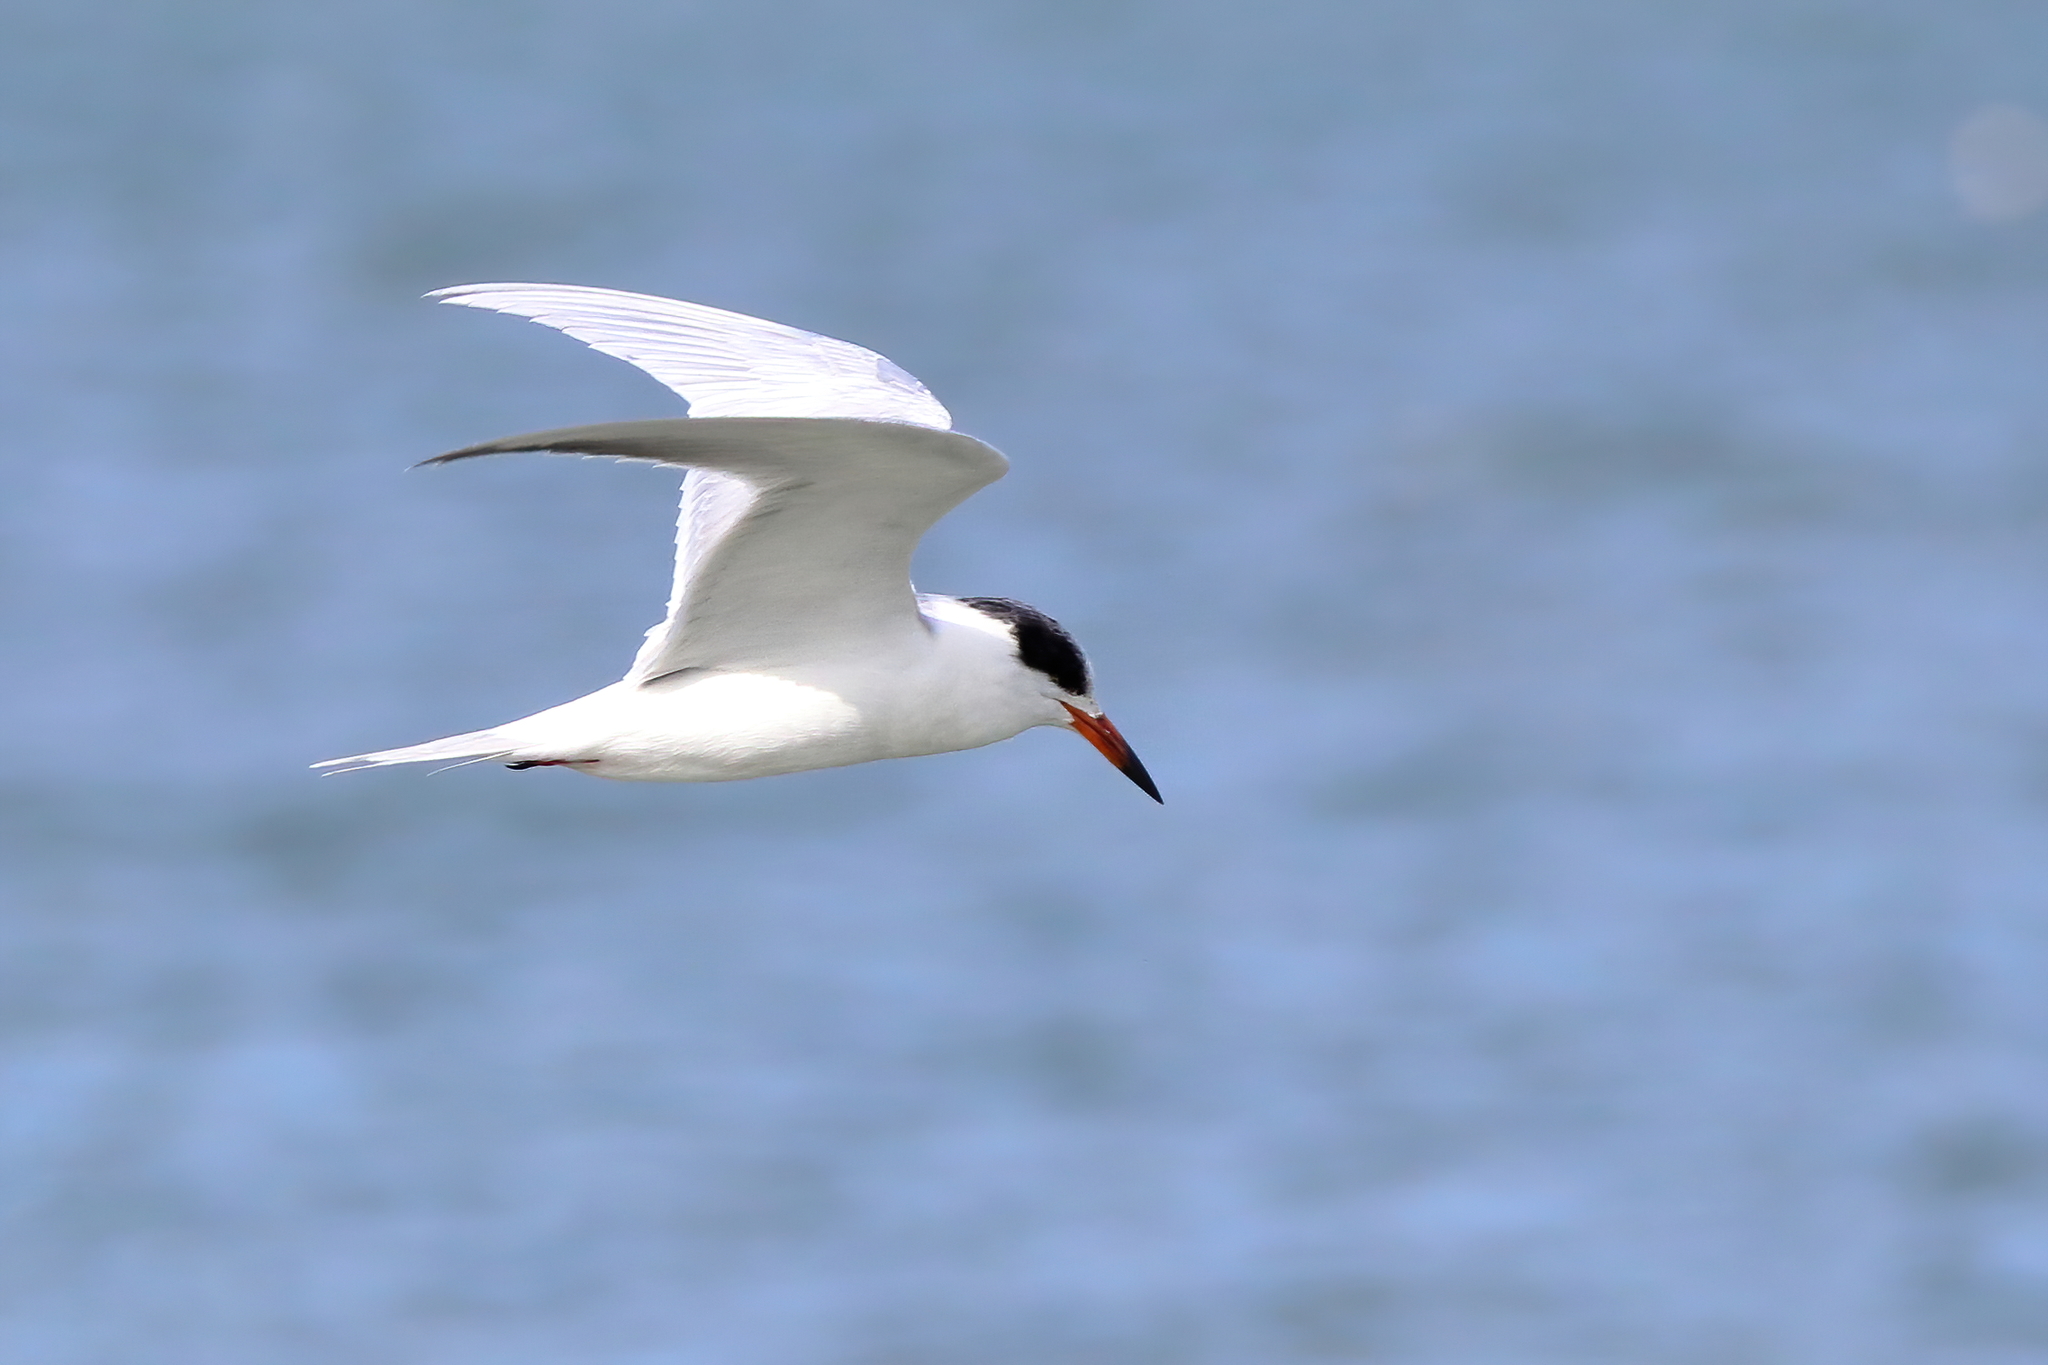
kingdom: Animalia
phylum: Chordata
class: Aves
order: Charadriiformes
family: Laridae
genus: Sterna
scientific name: Sterna forsteri
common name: Forster's tern
